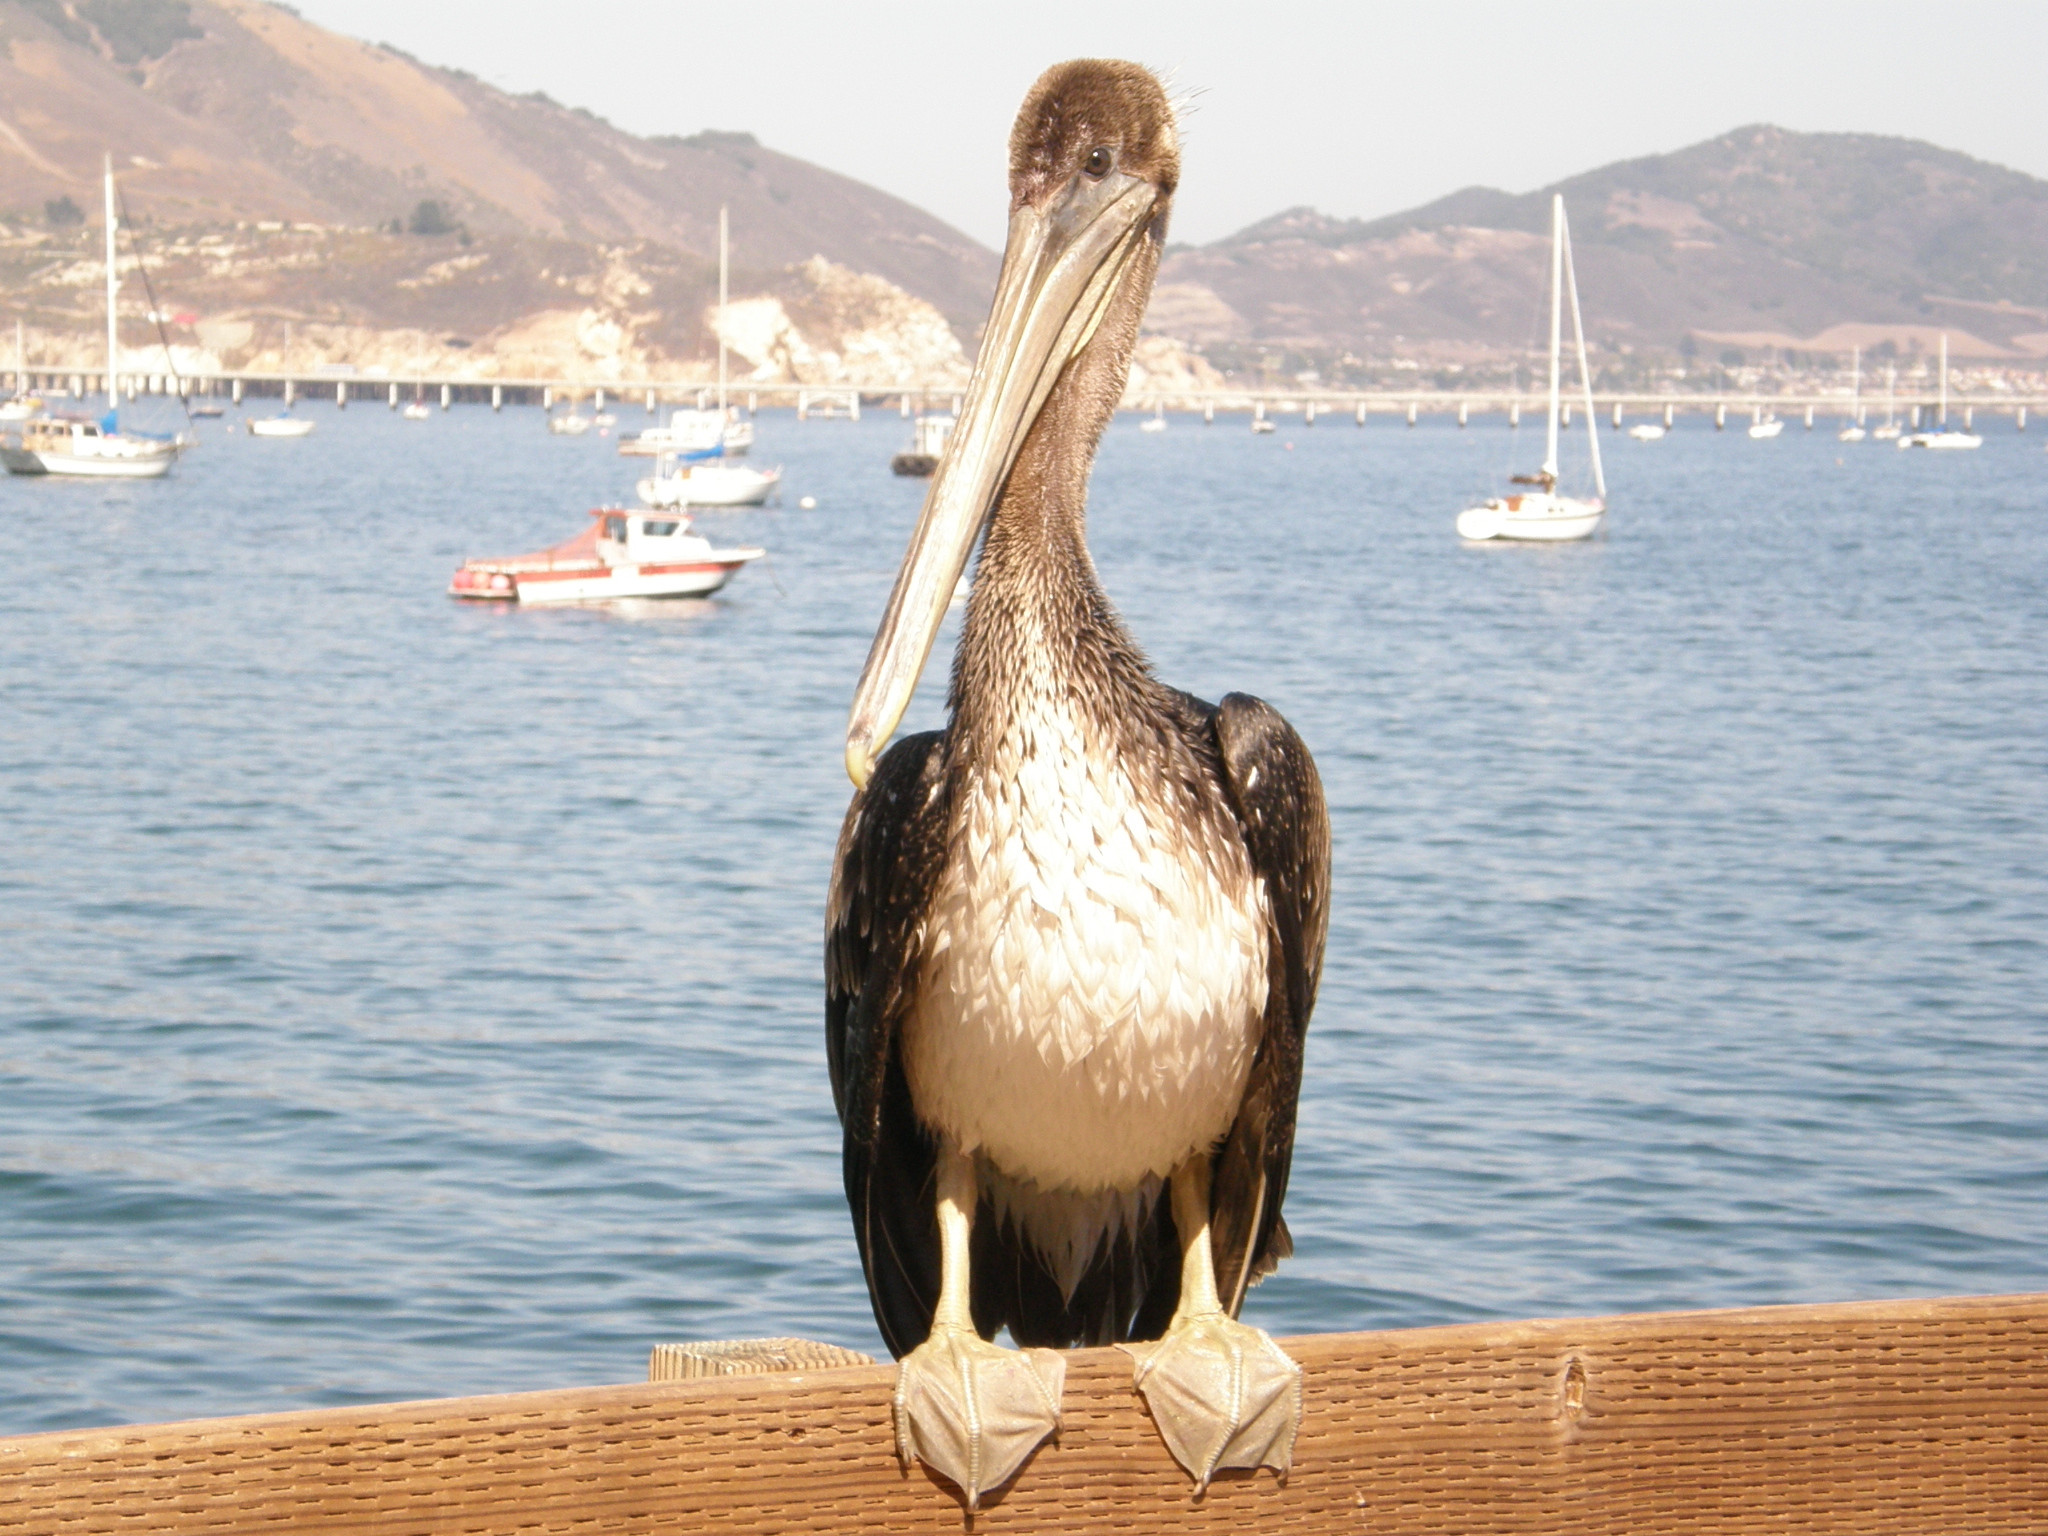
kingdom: Animalia
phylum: Chordata
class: Aves
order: Pelecaniformes
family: Pelecanidae
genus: Pelecanus
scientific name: Pelecanus occidentalis
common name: Brown pelican
